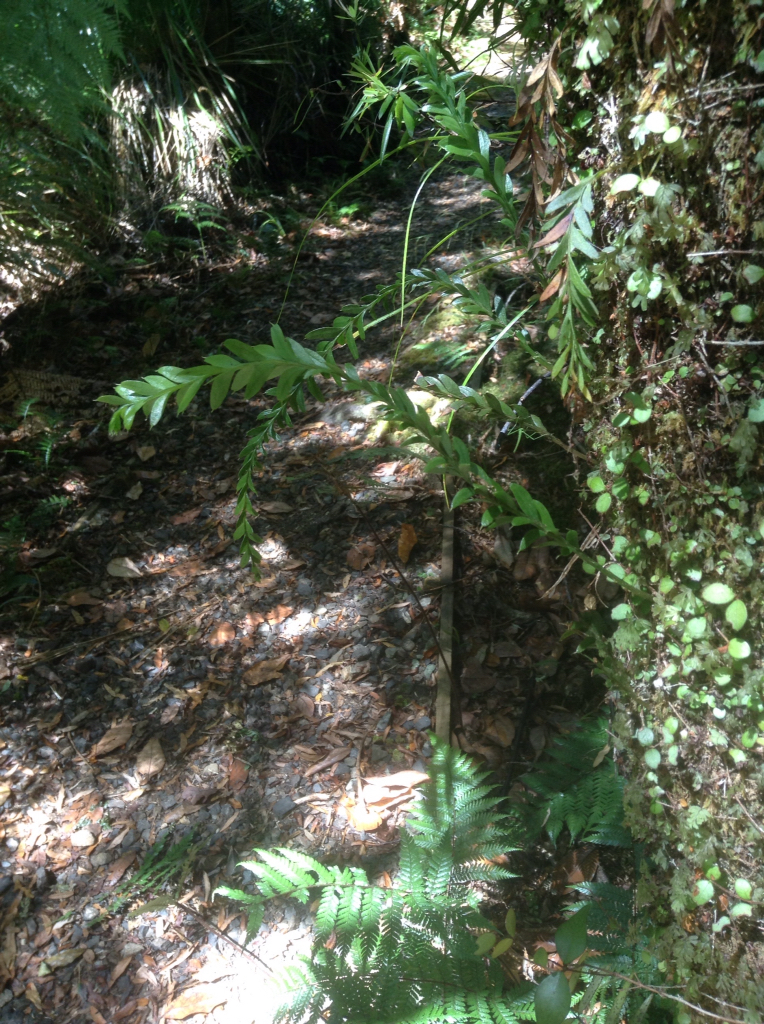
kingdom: Plantae
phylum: Tracheophyta
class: Polypodiopsida
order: Psilotales
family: Psilotaceae
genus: Tmesipteris
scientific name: Tmesipteris tannensis
